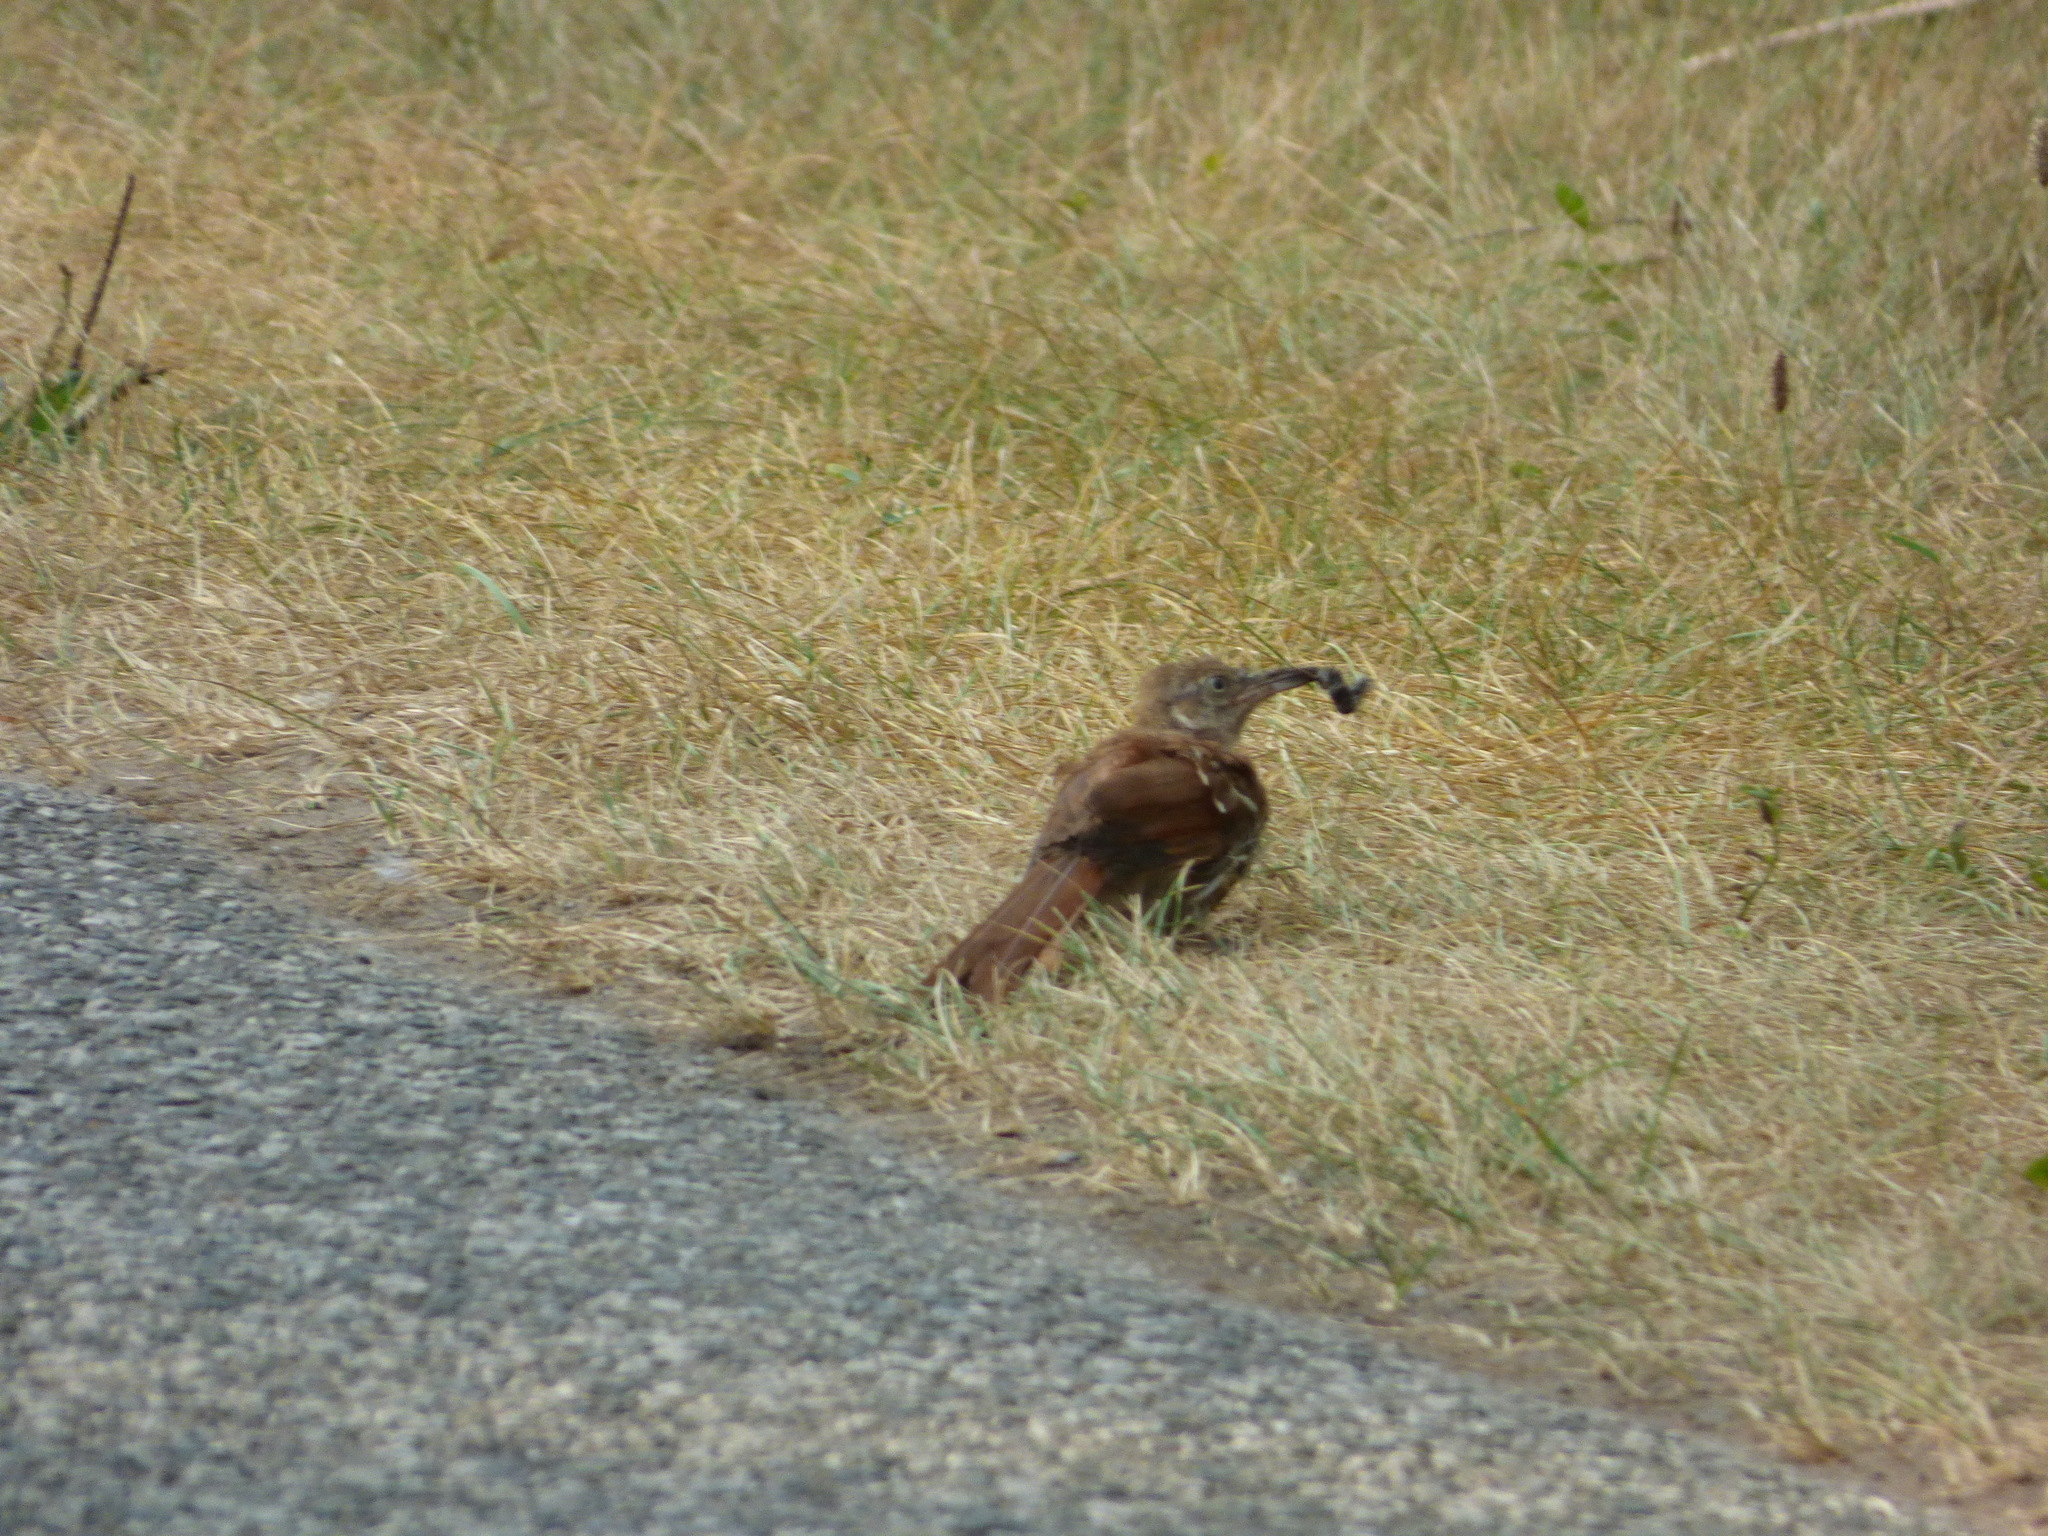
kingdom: Animalia
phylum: Chordata
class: Aves
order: Passeriformes
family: Mimidae
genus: Toxostoma
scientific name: Toxostoma rufum
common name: Brown thrasher
